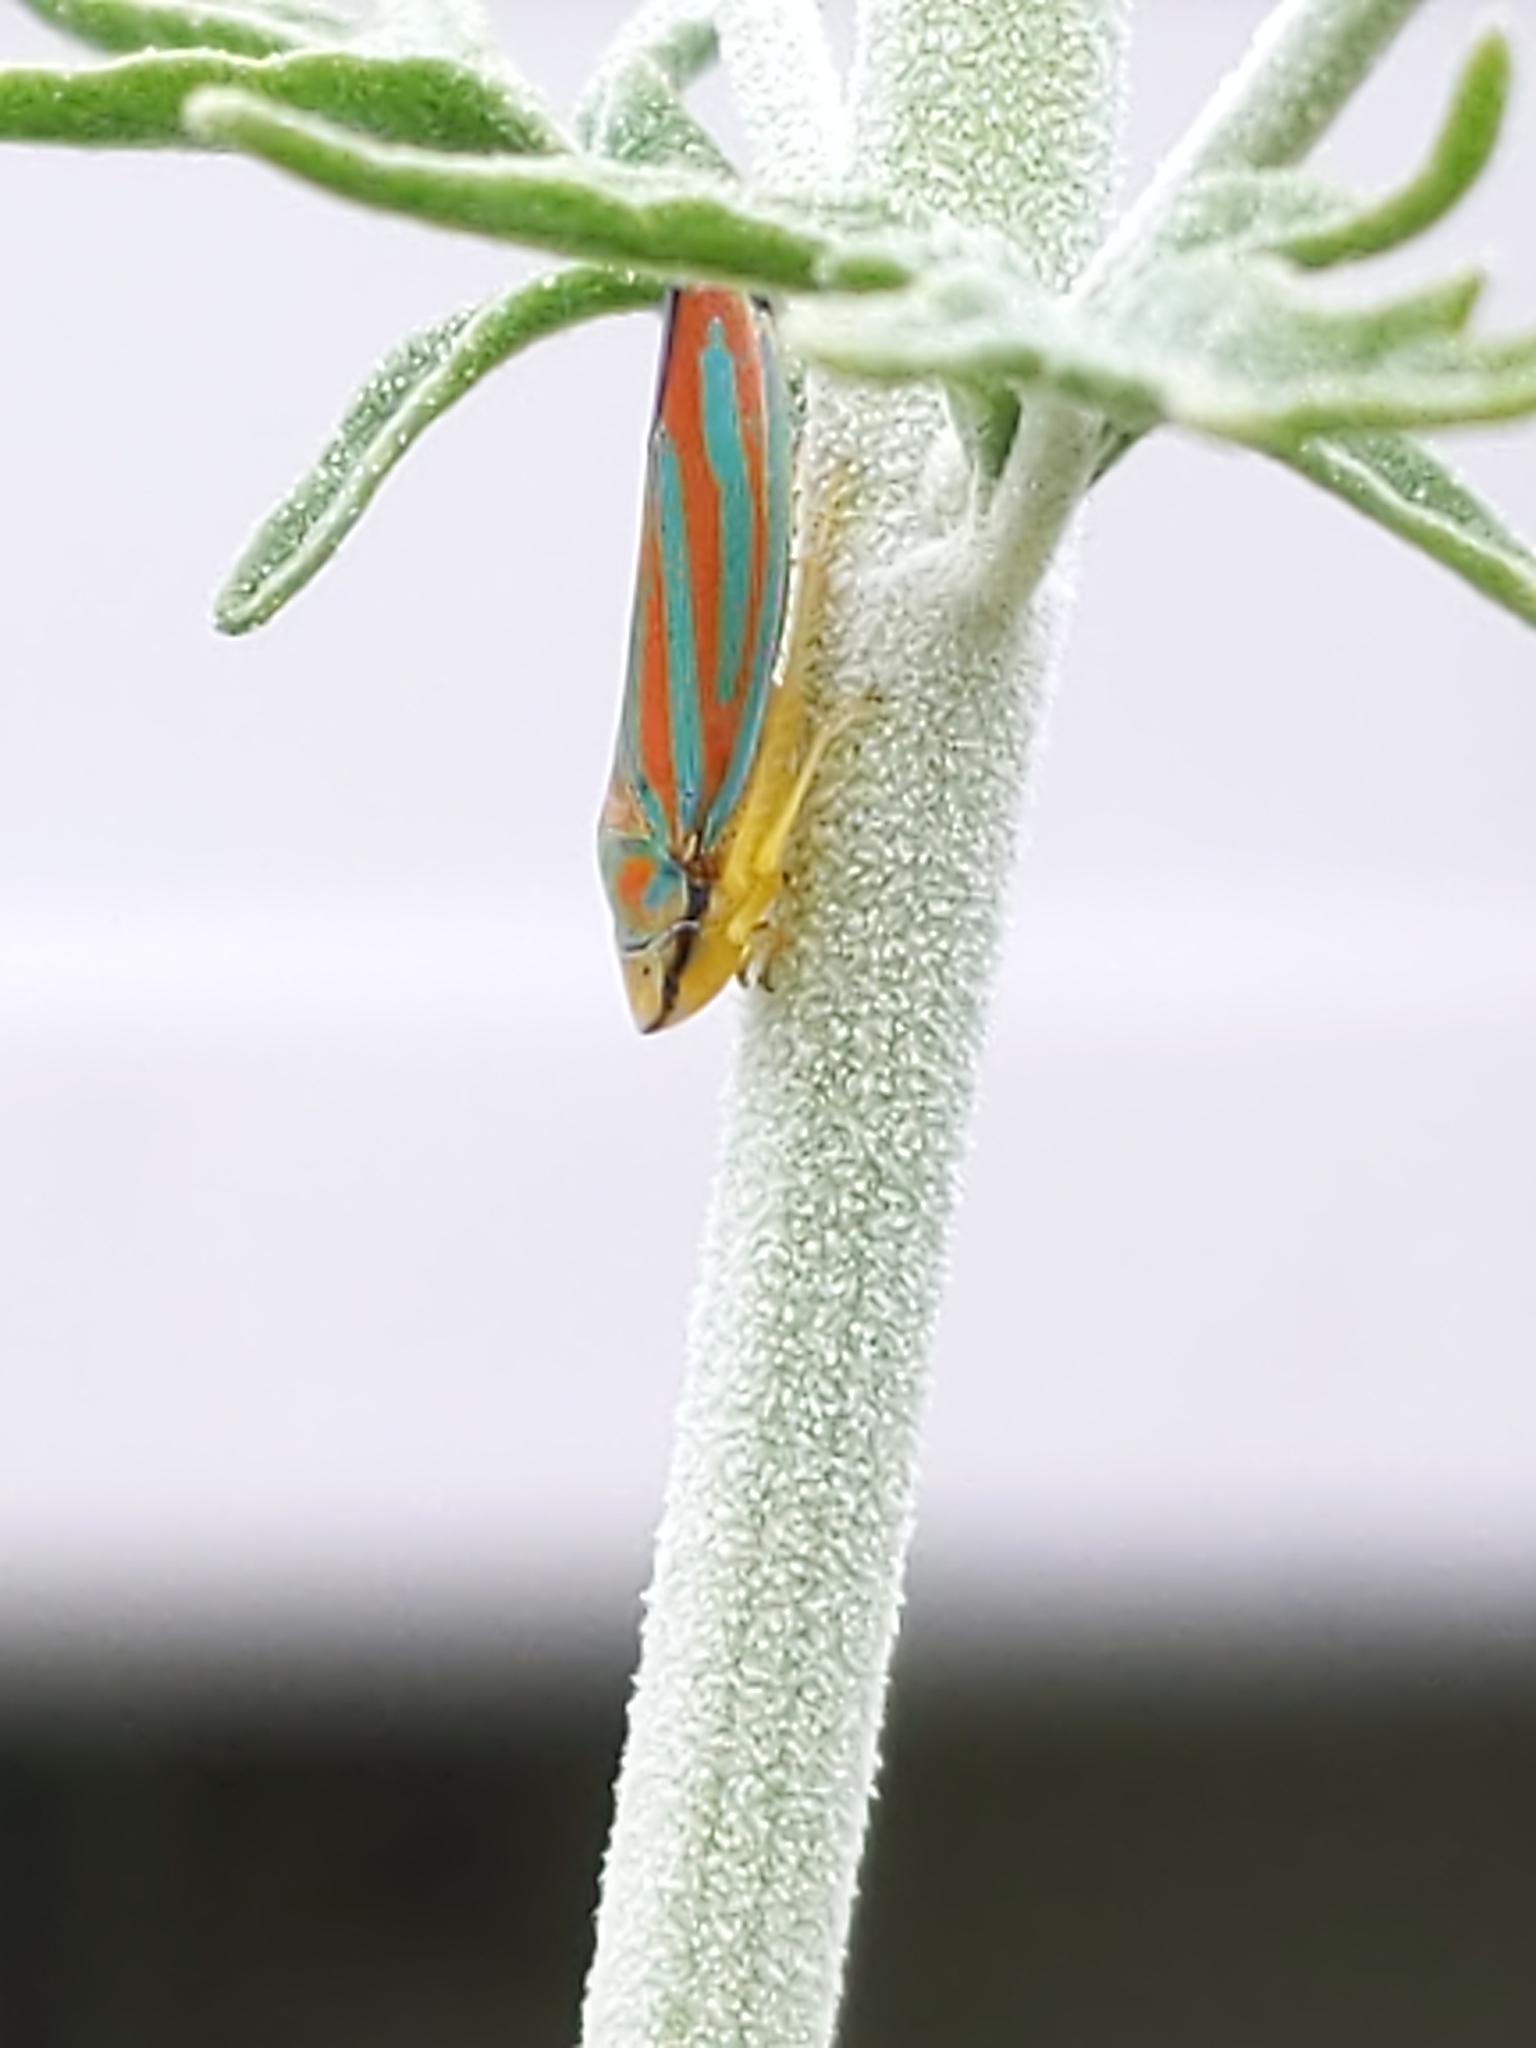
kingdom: Animalia
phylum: Arthropoda
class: Insecta
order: Hemiptera
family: Cicadellidae
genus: Graphocephala
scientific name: Graphocephala coccinea
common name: Candy-striped leafhopper
